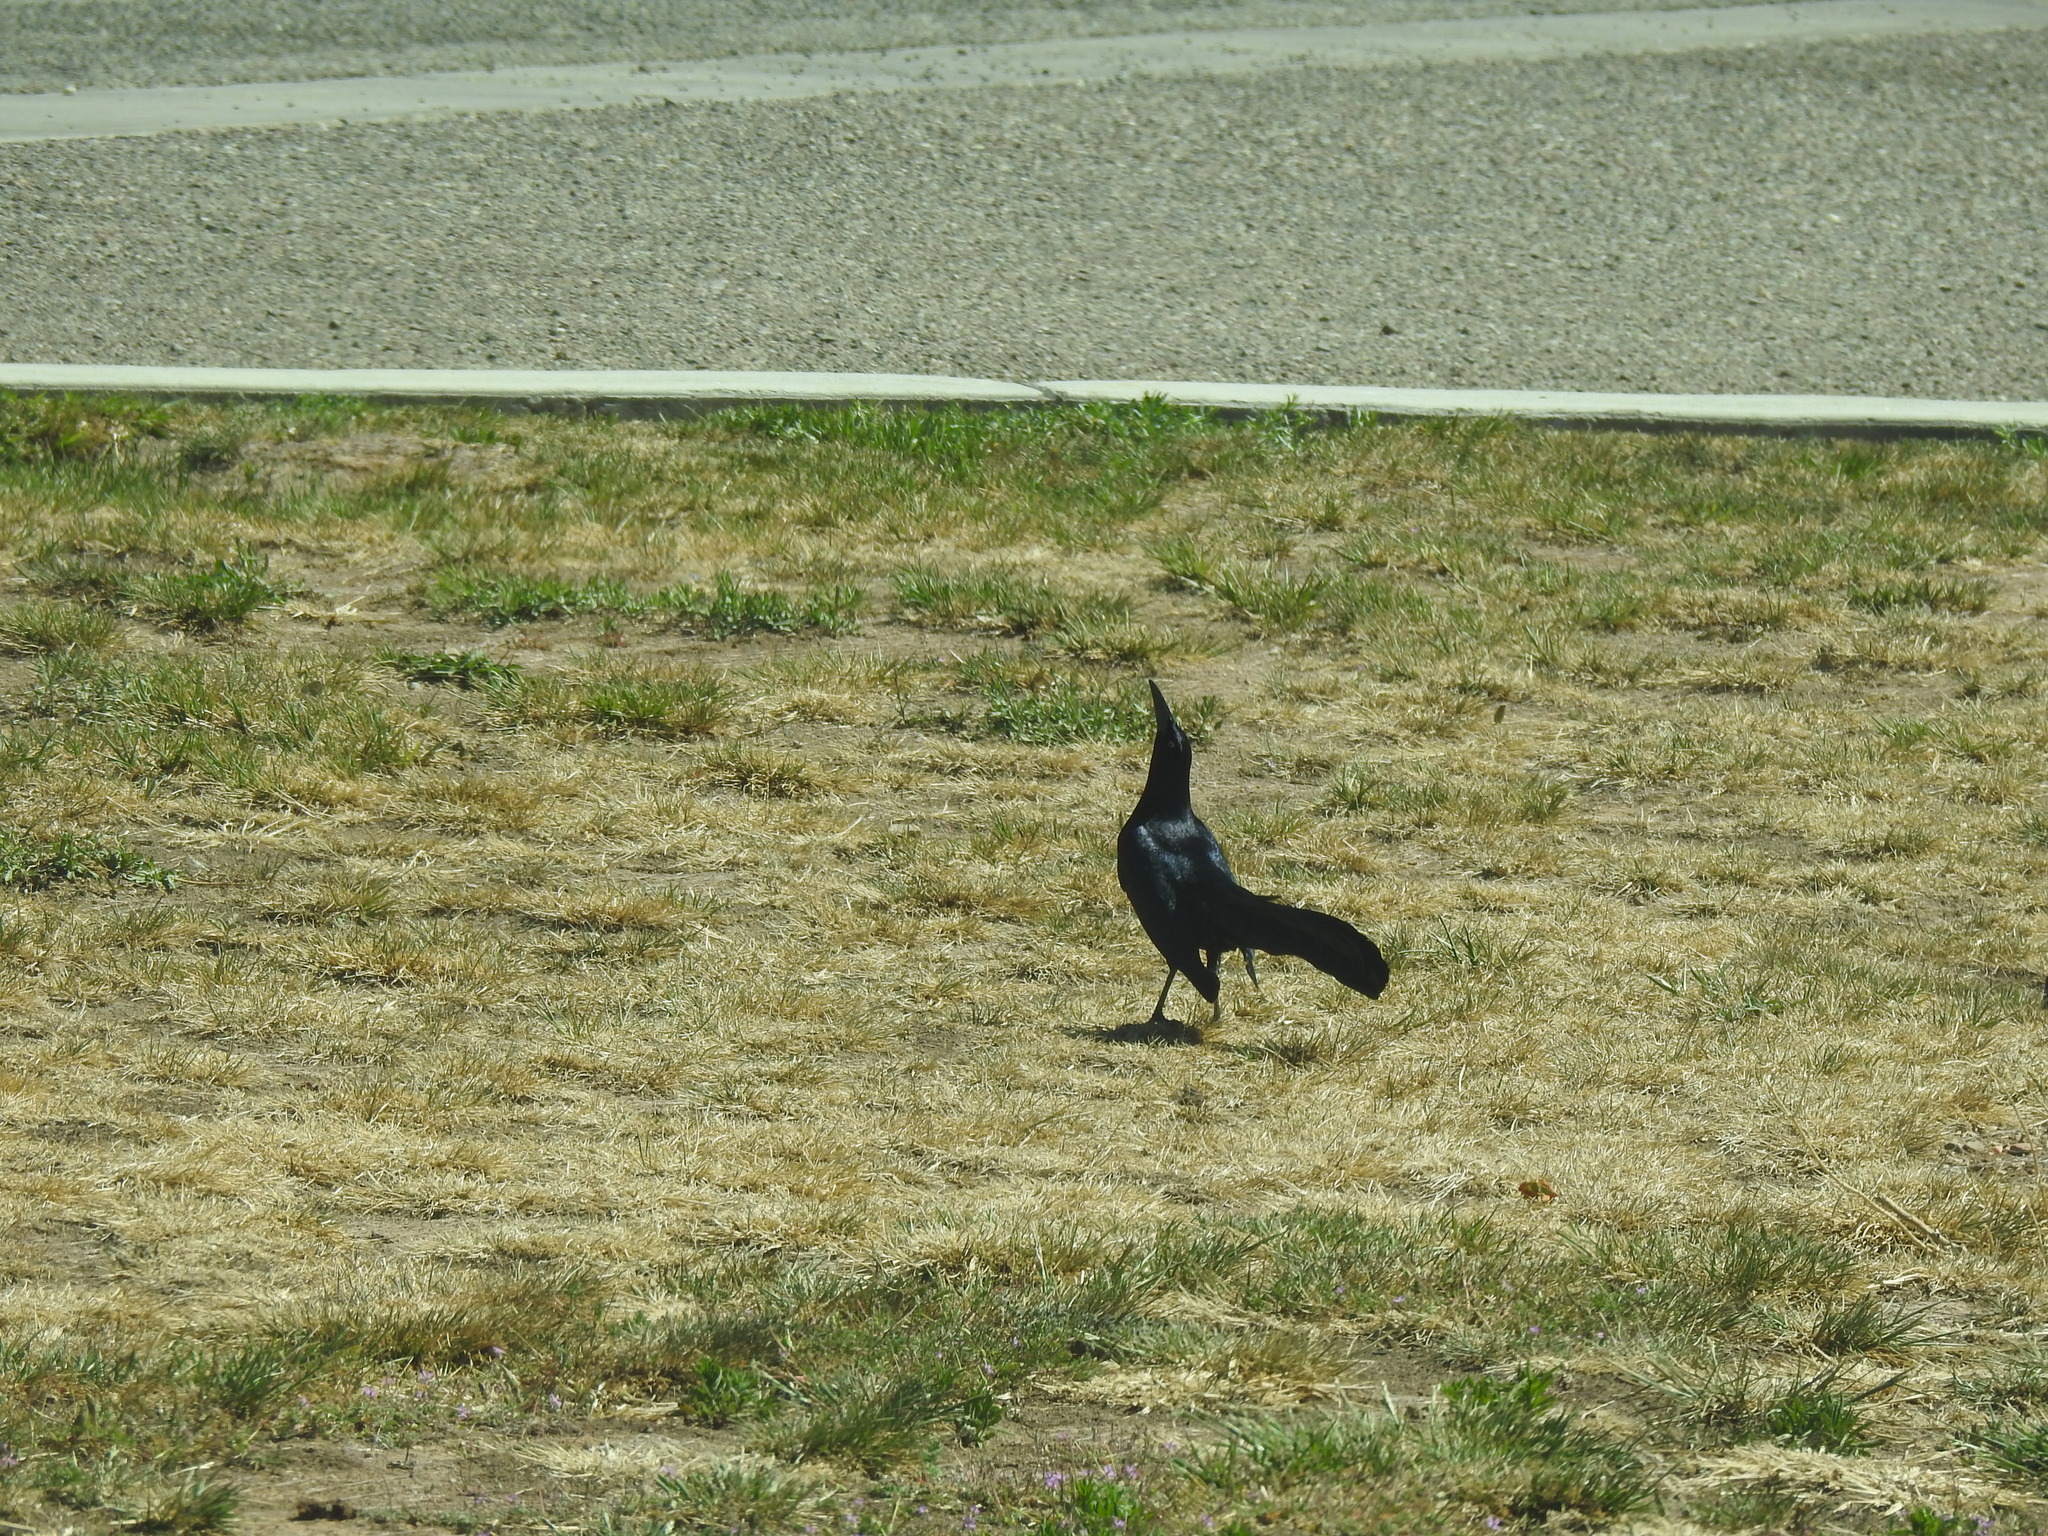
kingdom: Animalia
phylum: Chordata
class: Aves
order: Passeriformes
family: Icteridae
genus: Quiscalus
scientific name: Quiscalus mexicanus
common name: Great-tailed grackle
